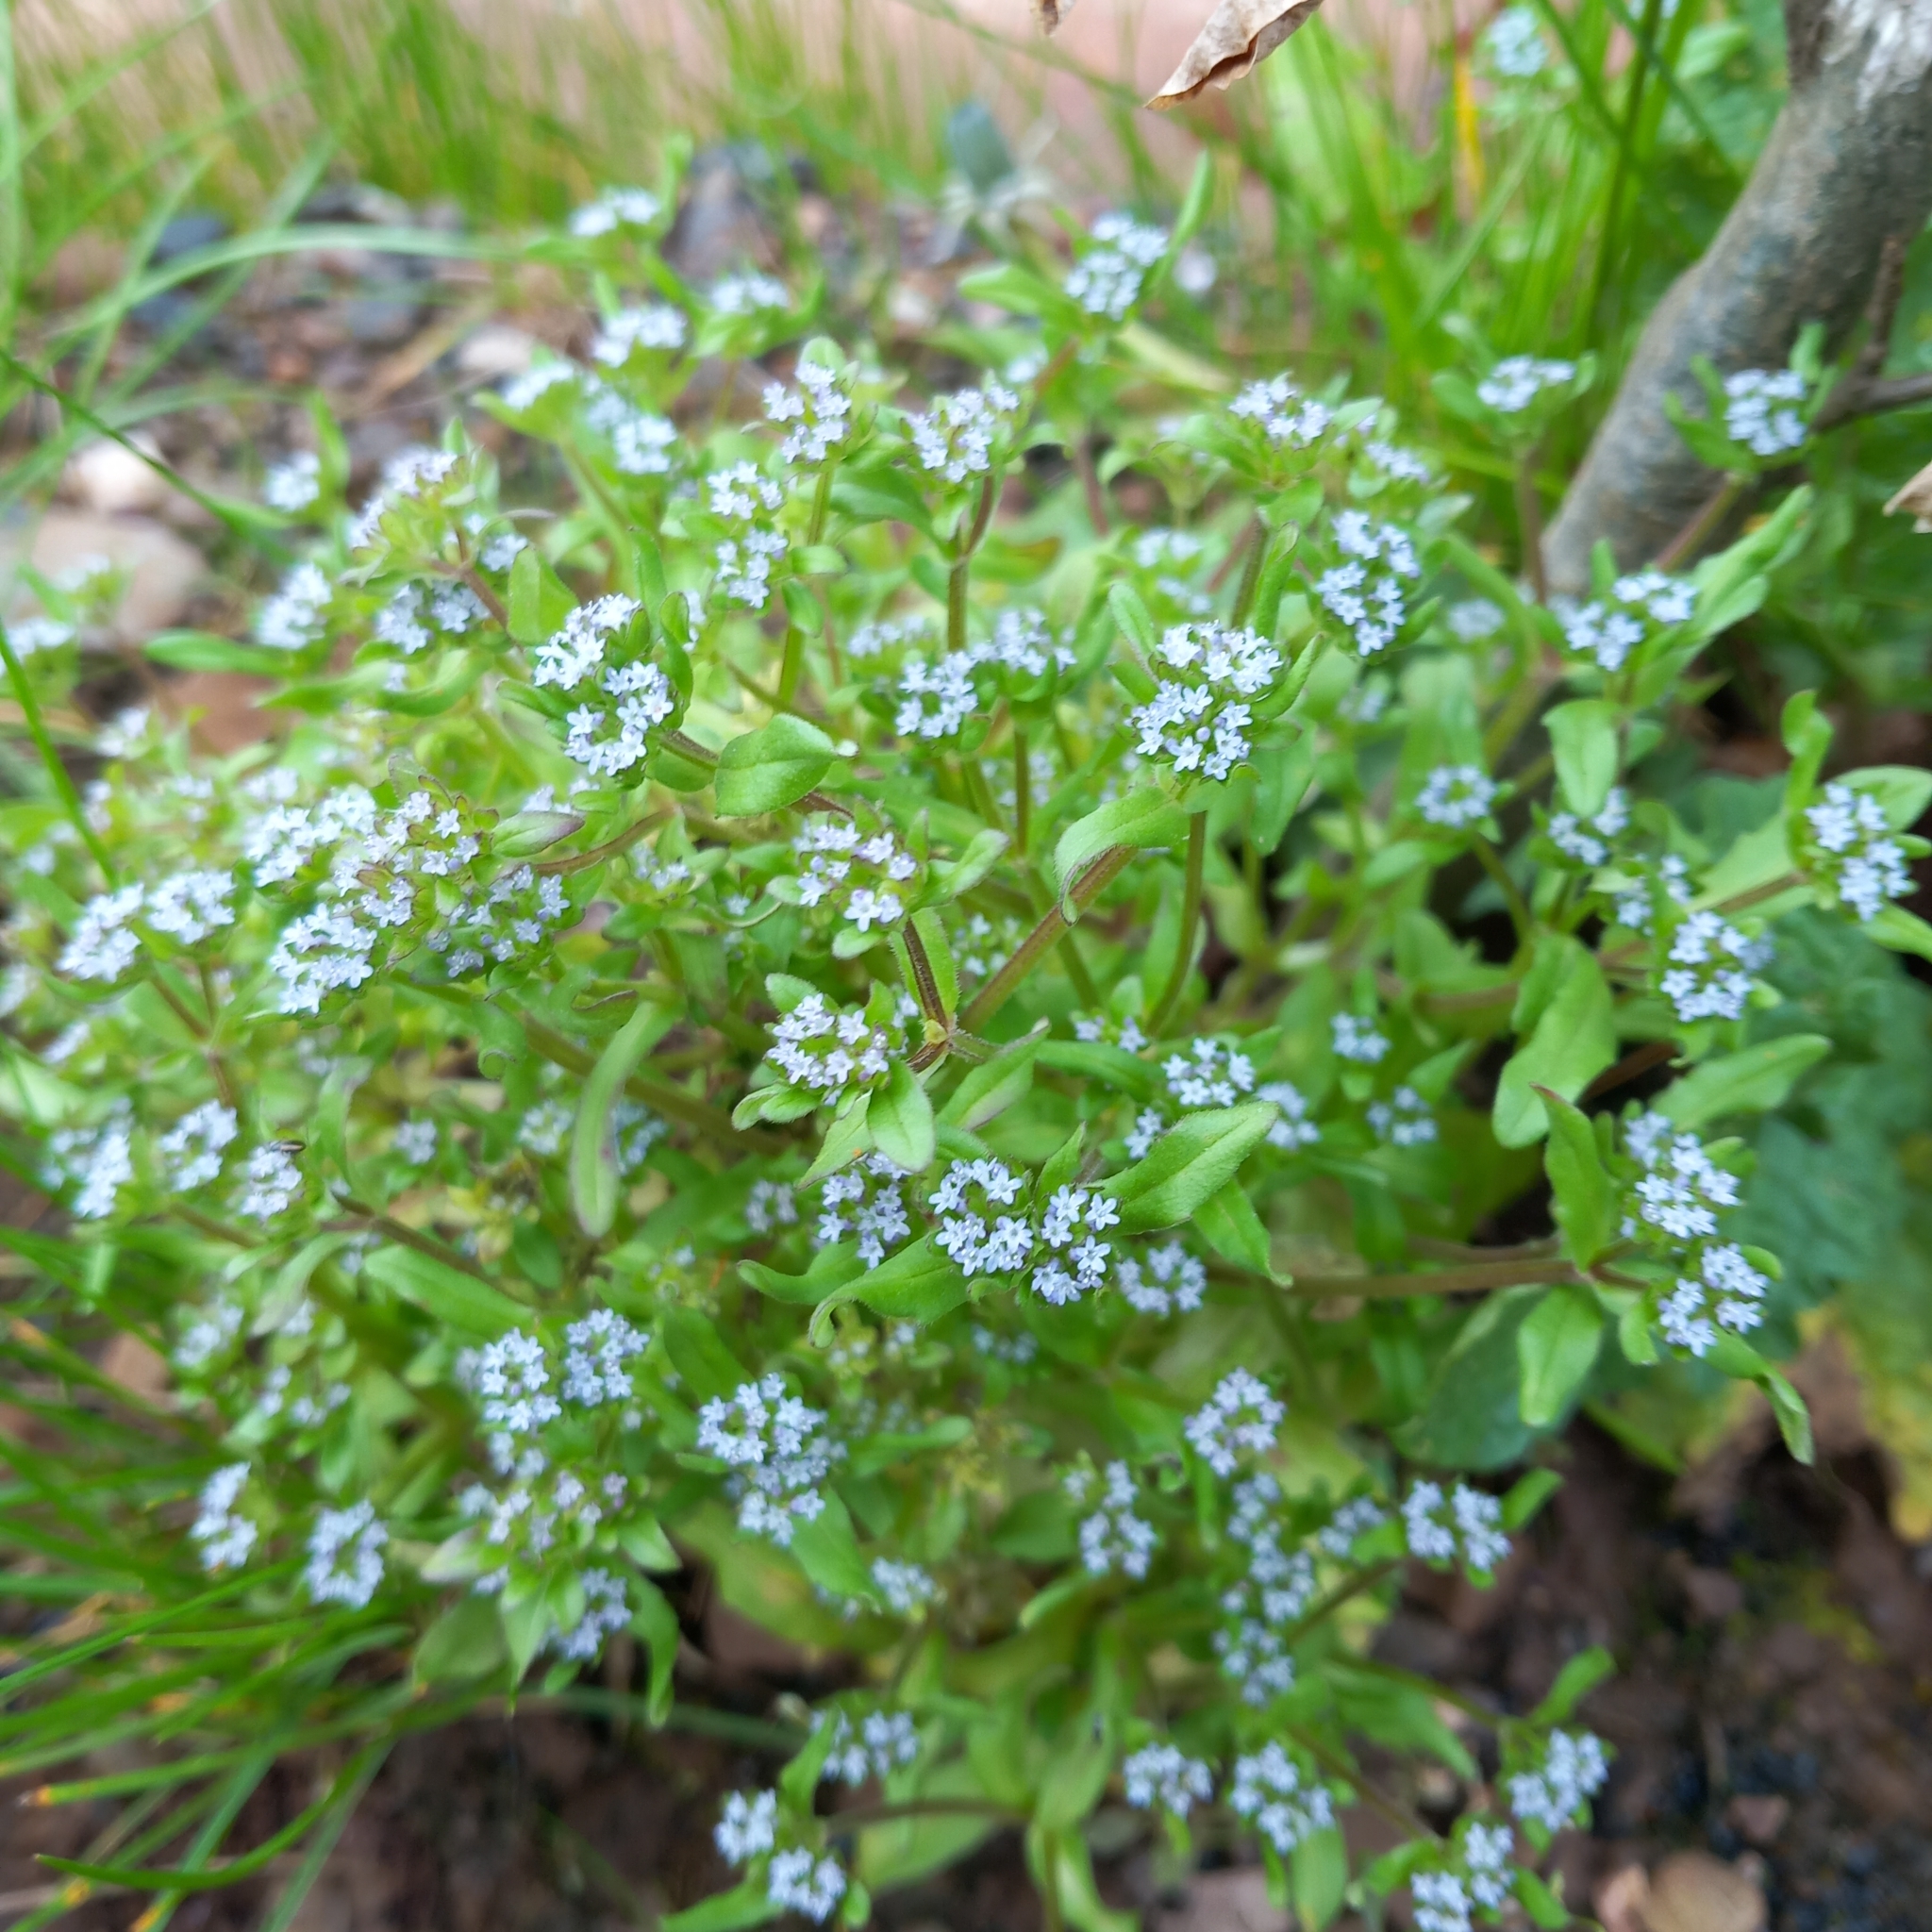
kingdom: Plantae
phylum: Tracheophyta
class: Magnoliopsida
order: Dipsacales
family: Caprifoliaceae
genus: Valerianella
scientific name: Valerianella locusta
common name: Common cornsalad
